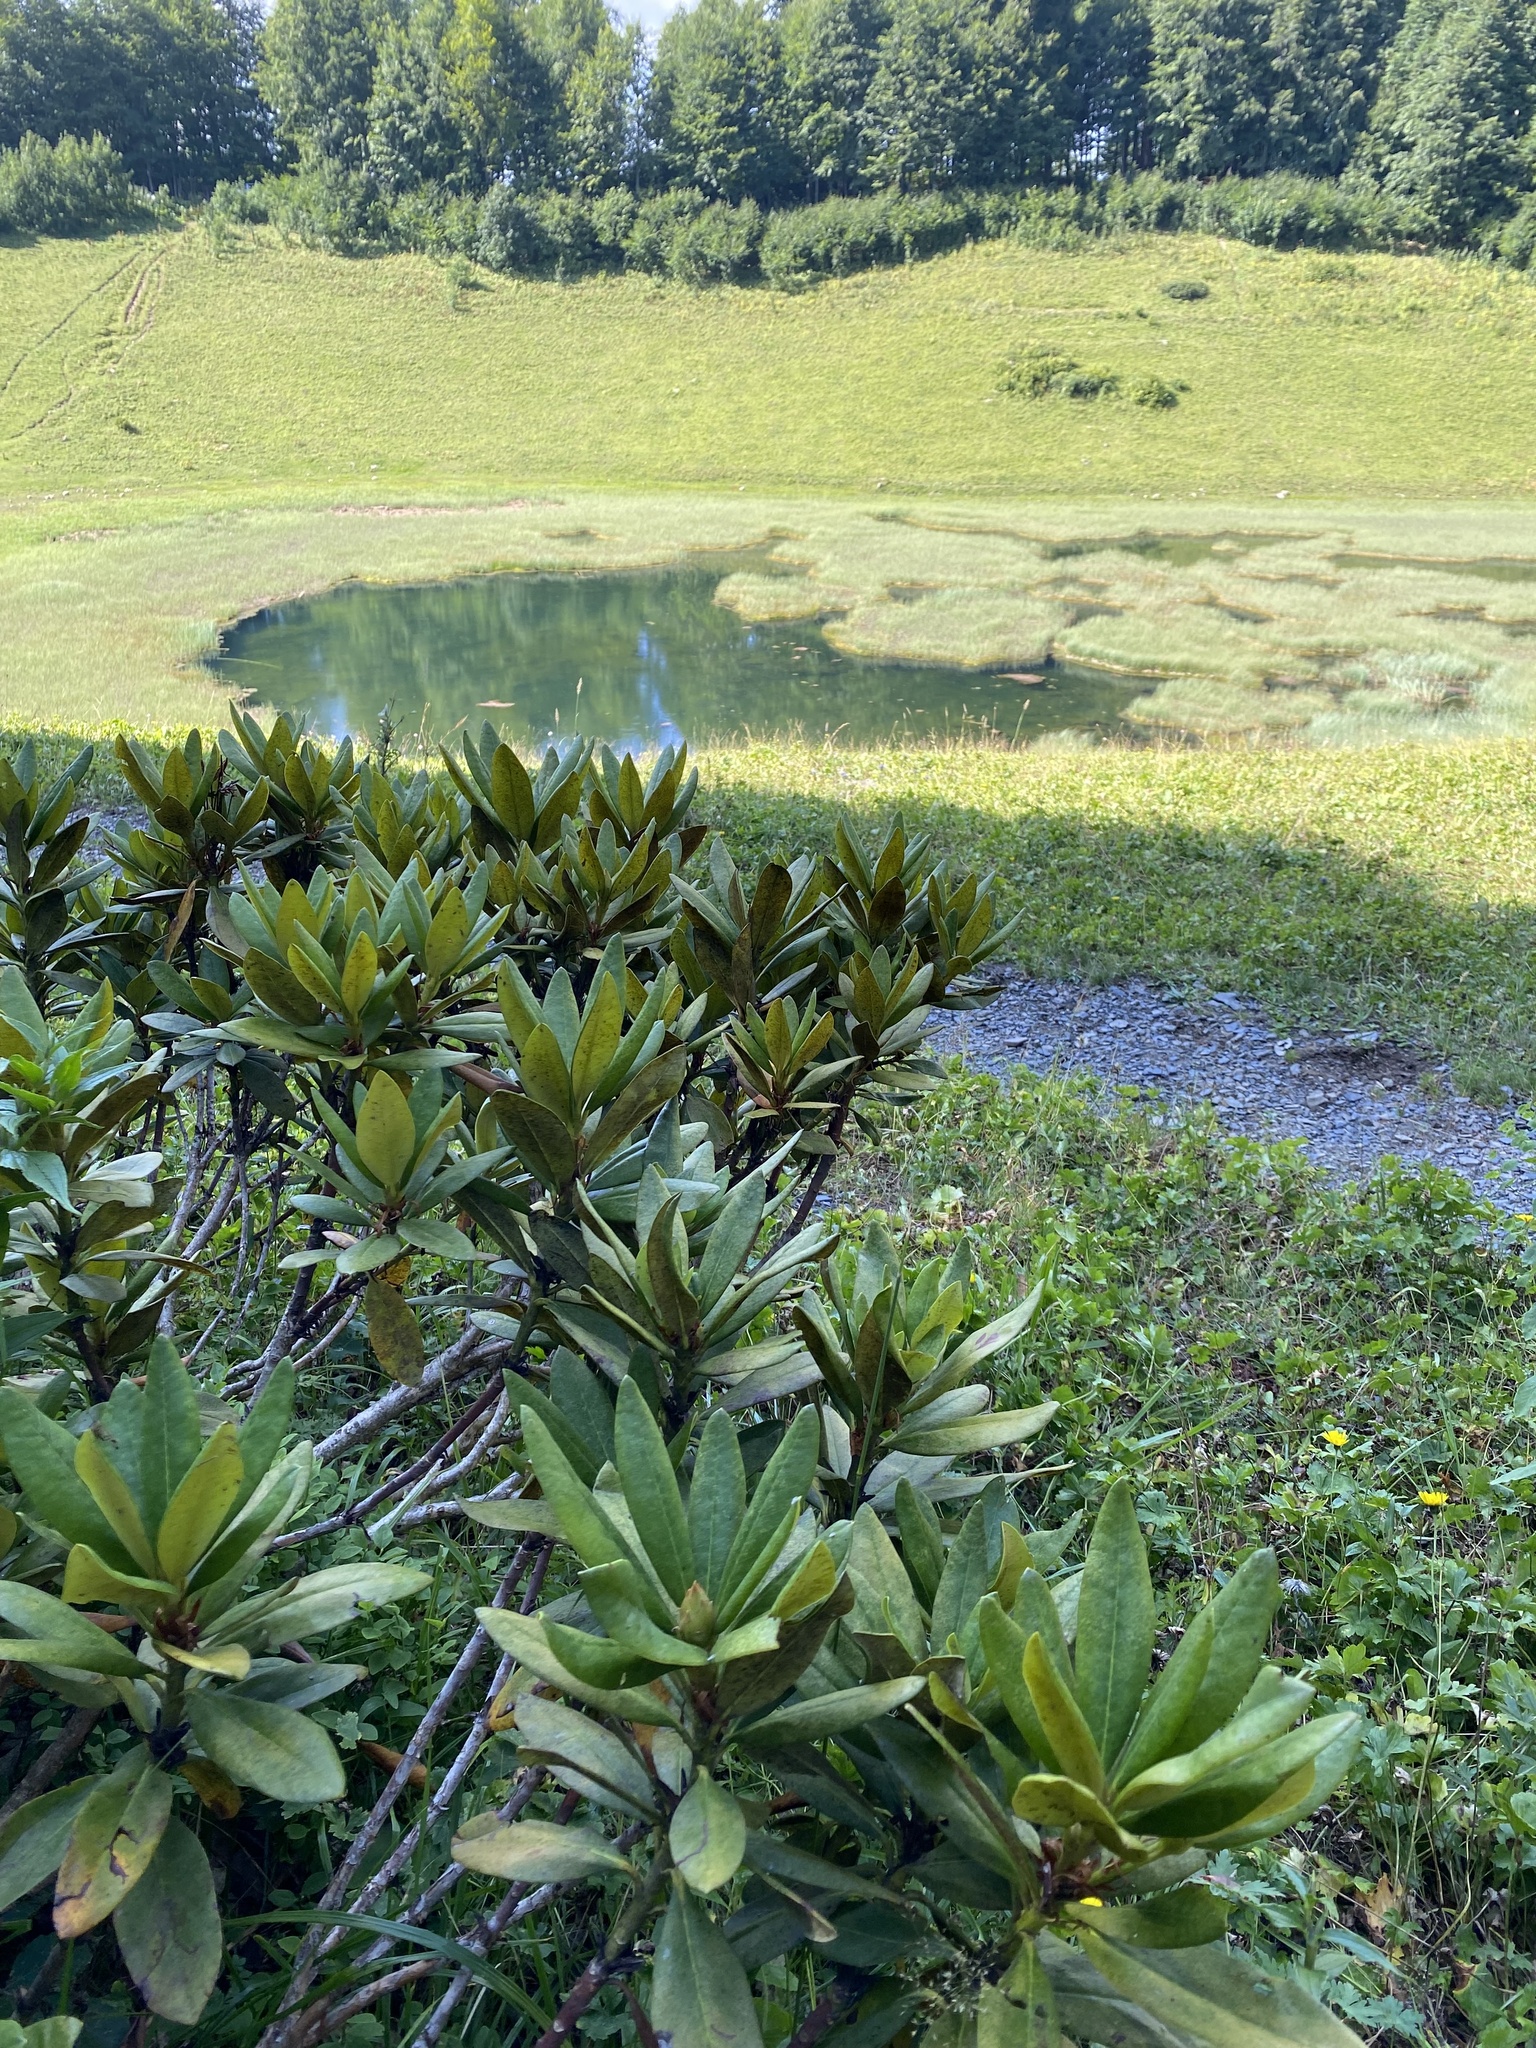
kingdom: Plantae
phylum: Tracheophyta
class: Magnoliopsida
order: Ericales
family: Ericaceae
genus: Rhododendron
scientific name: Rhododendron caucasicum
